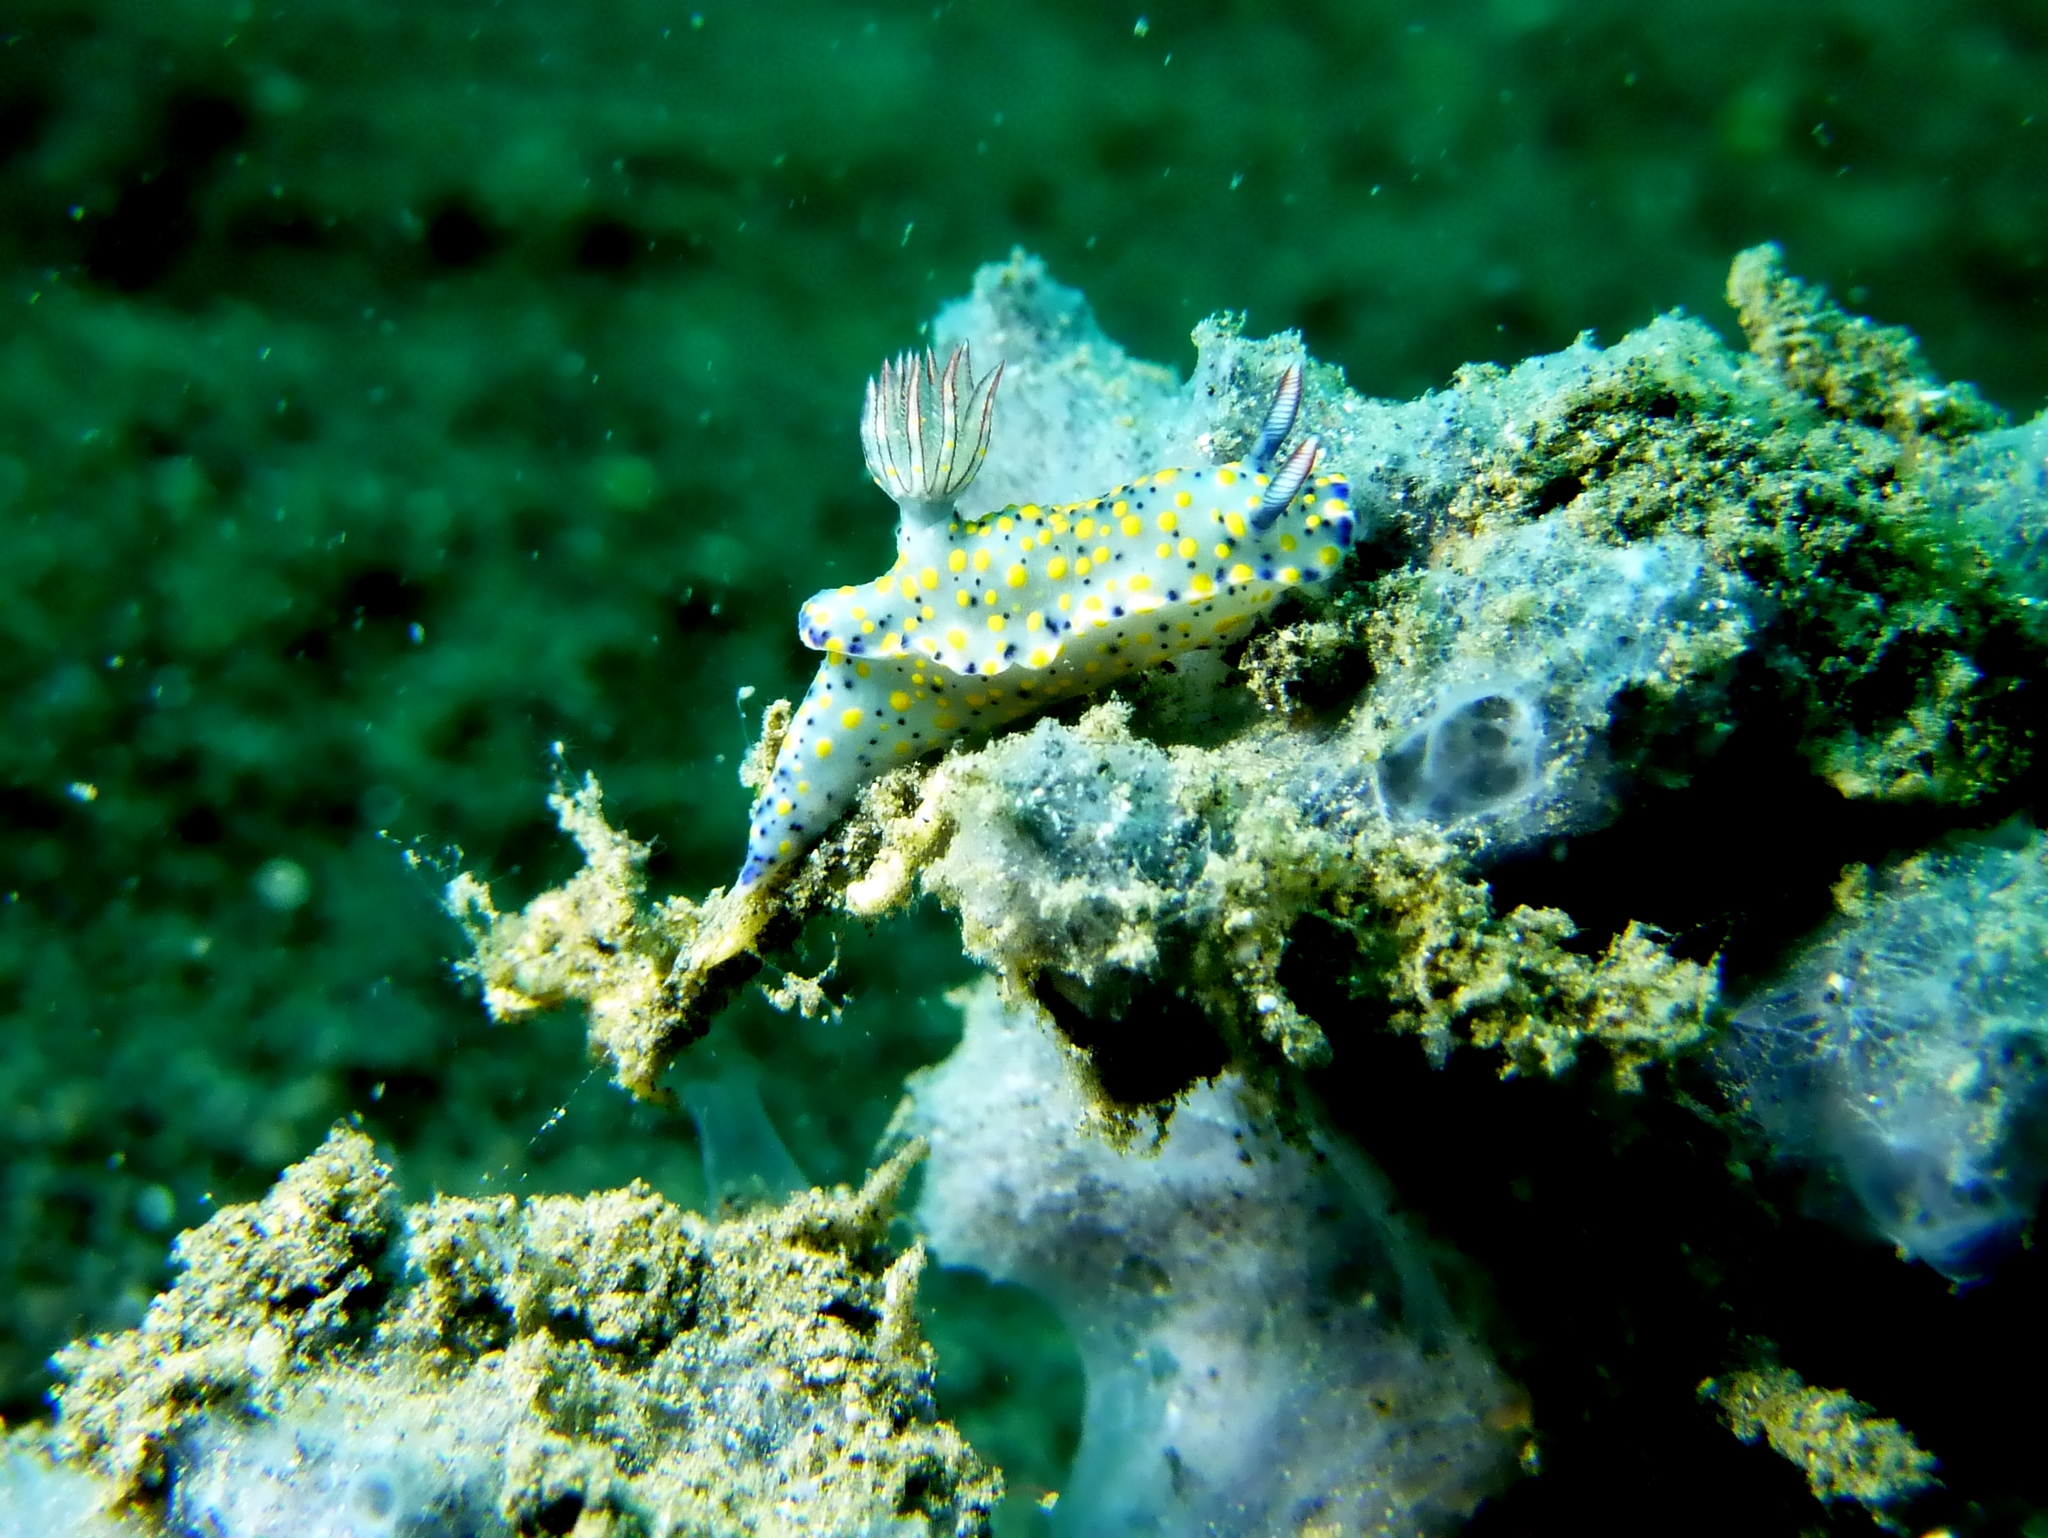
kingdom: Animalia
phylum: Mollusca
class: Gastropoda
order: Nudibranchia
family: Chromodorididae
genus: Hypselodoris
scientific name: Hypselodoris confetti
